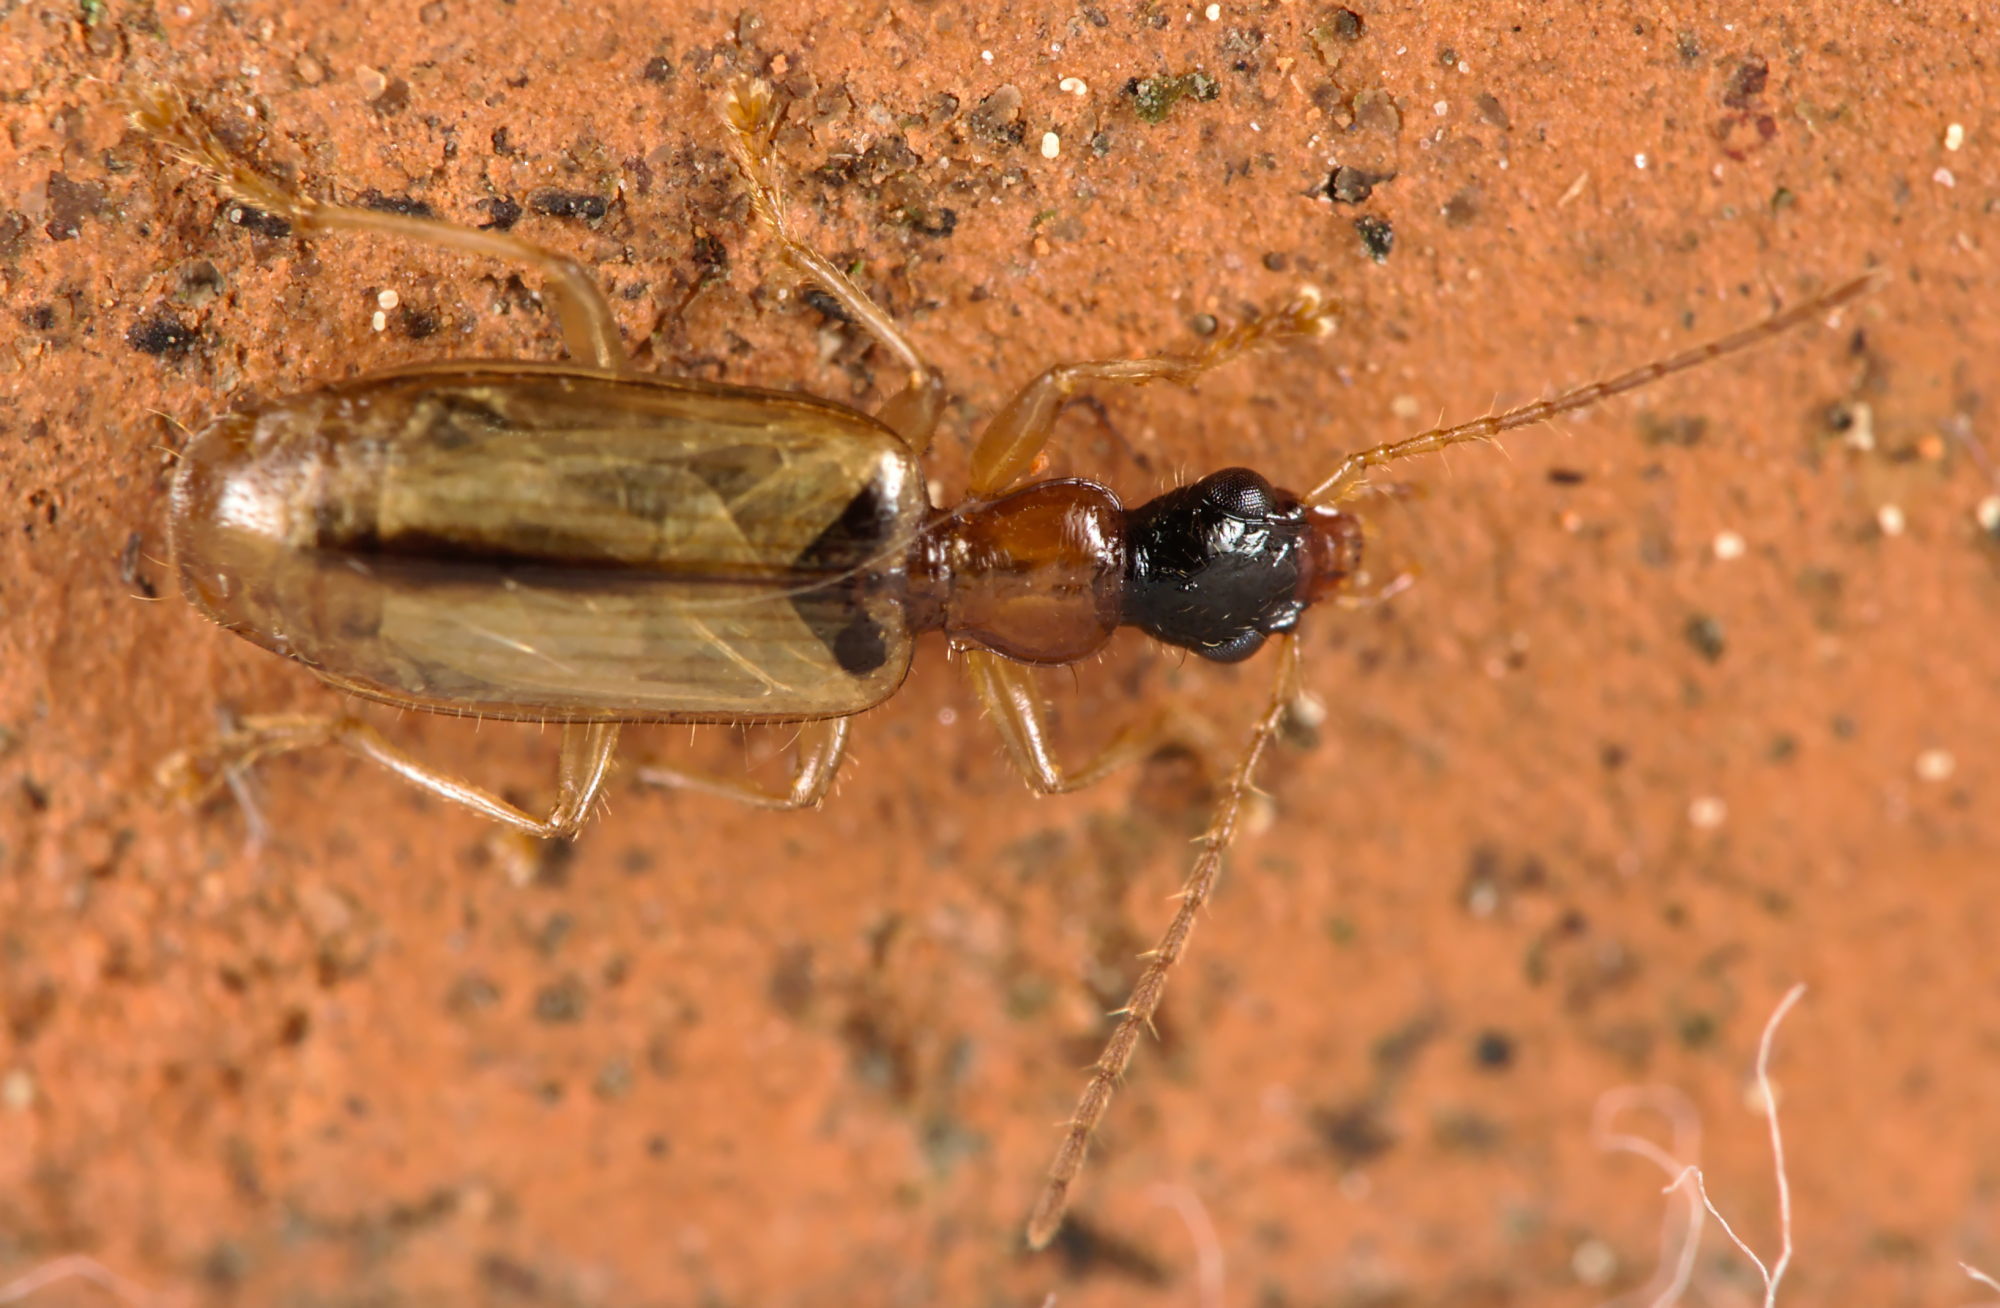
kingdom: Animalia
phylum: Arthropoda
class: Insecta
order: Coleoptera
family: Carabidae
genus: Demetrias
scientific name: Demetrias atricapillus
